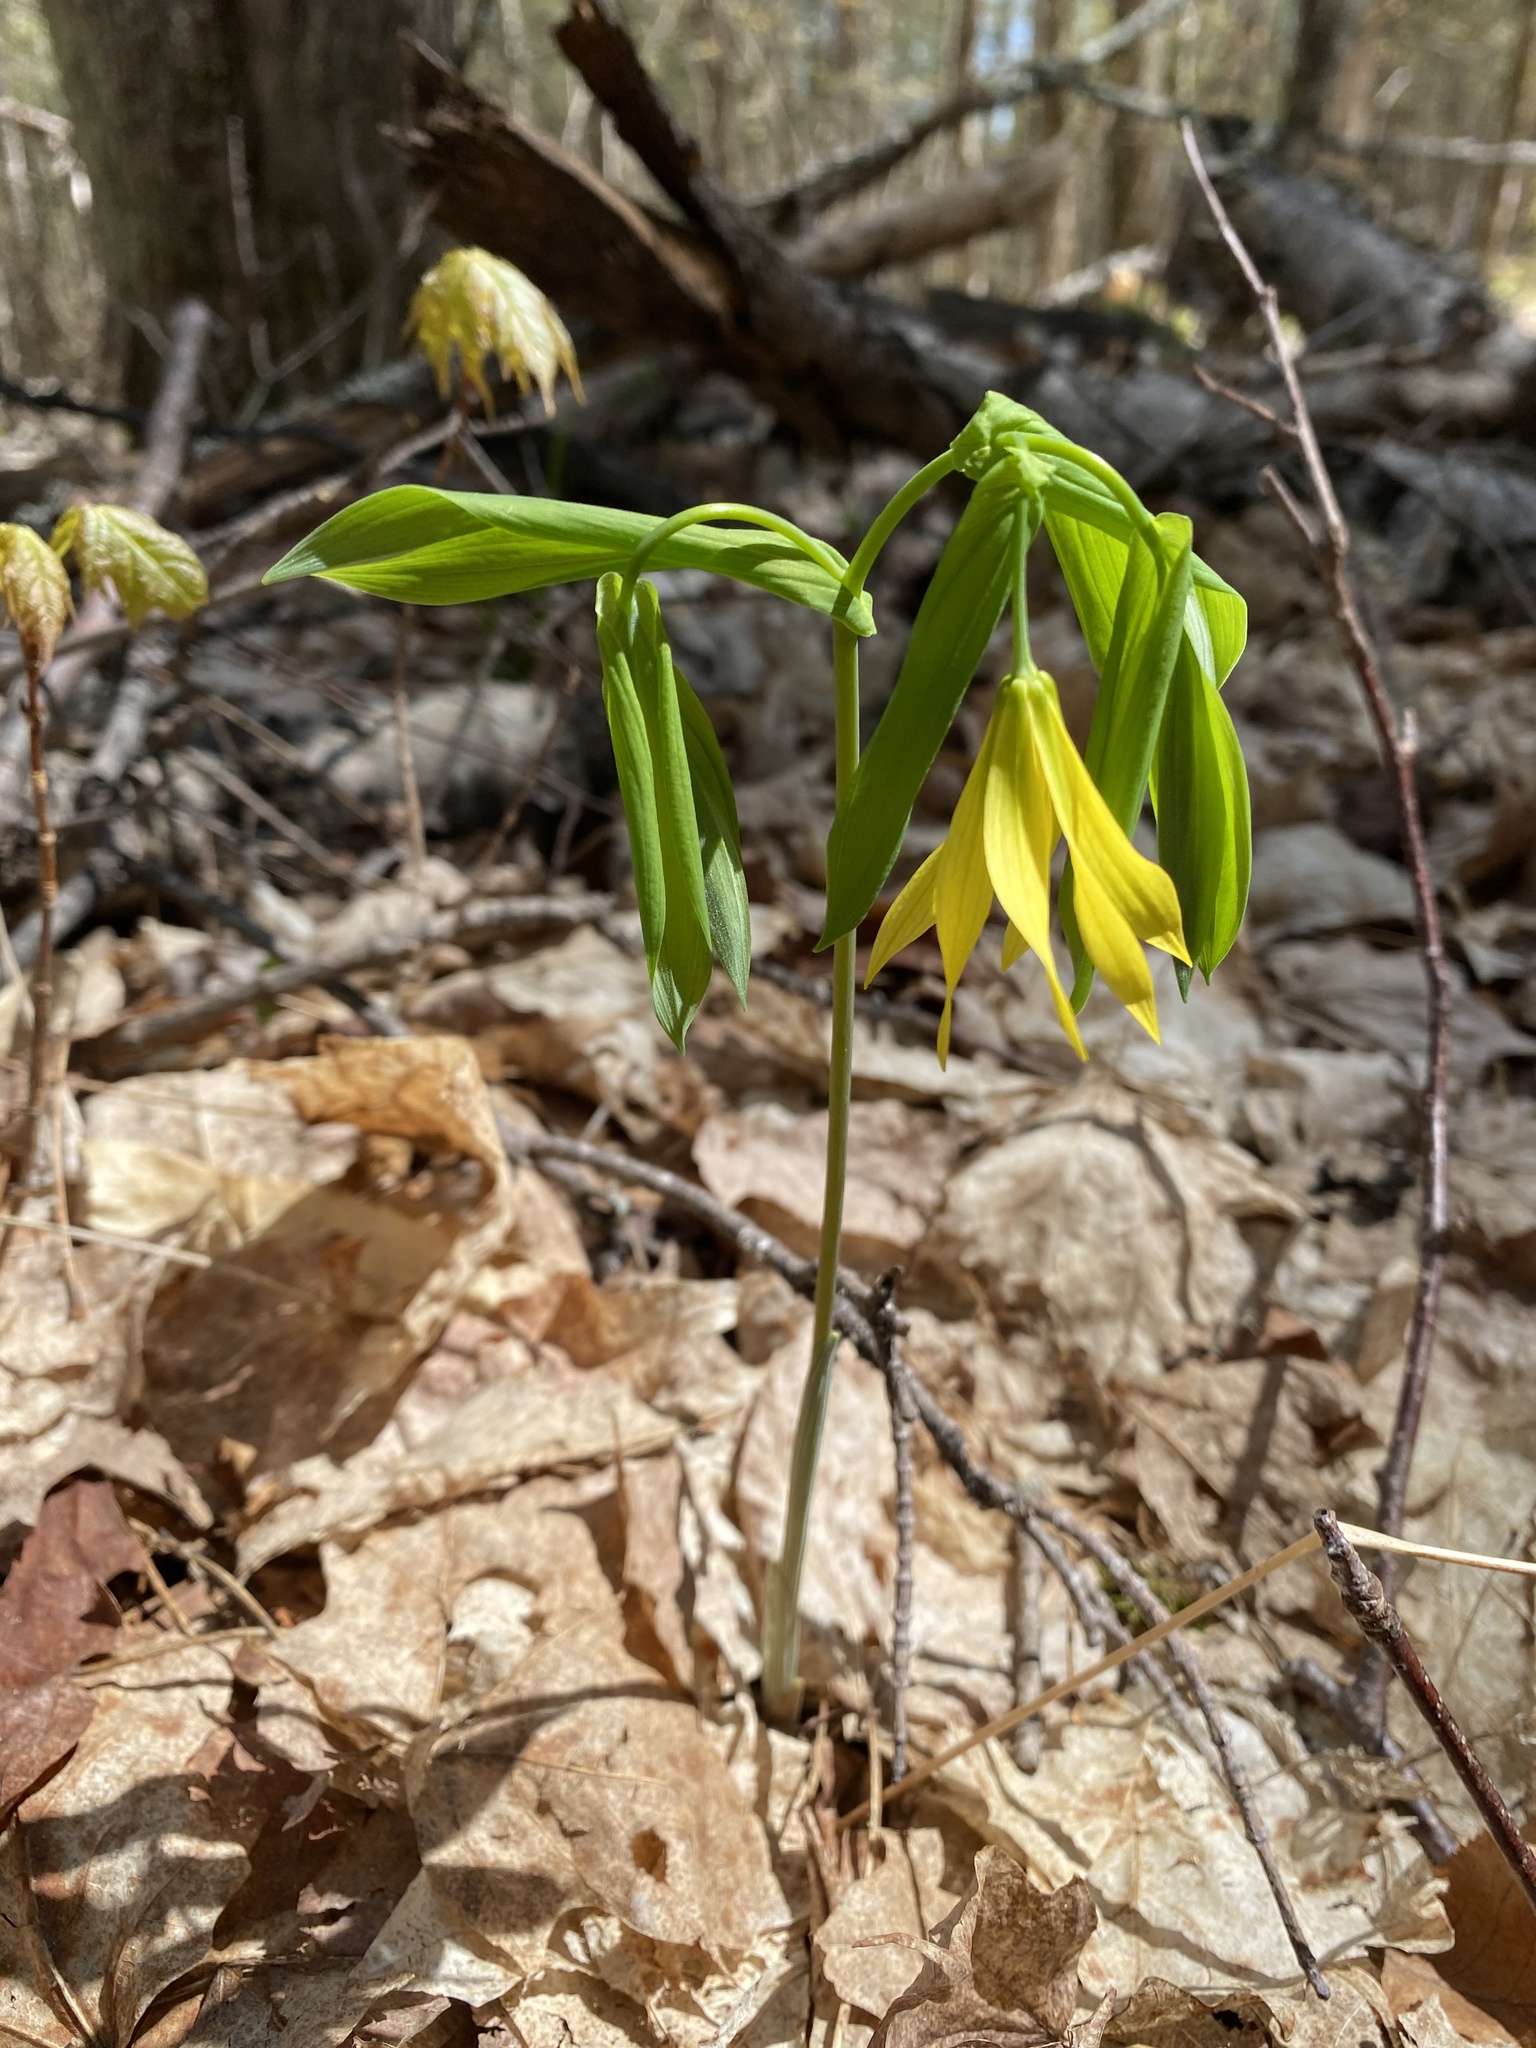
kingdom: Plantae
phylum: Tracheophyta
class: Liliopsida
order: Liliales
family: Colchicaceae
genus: Uvularia
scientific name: Uvularia grandiflora
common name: Bellwort
